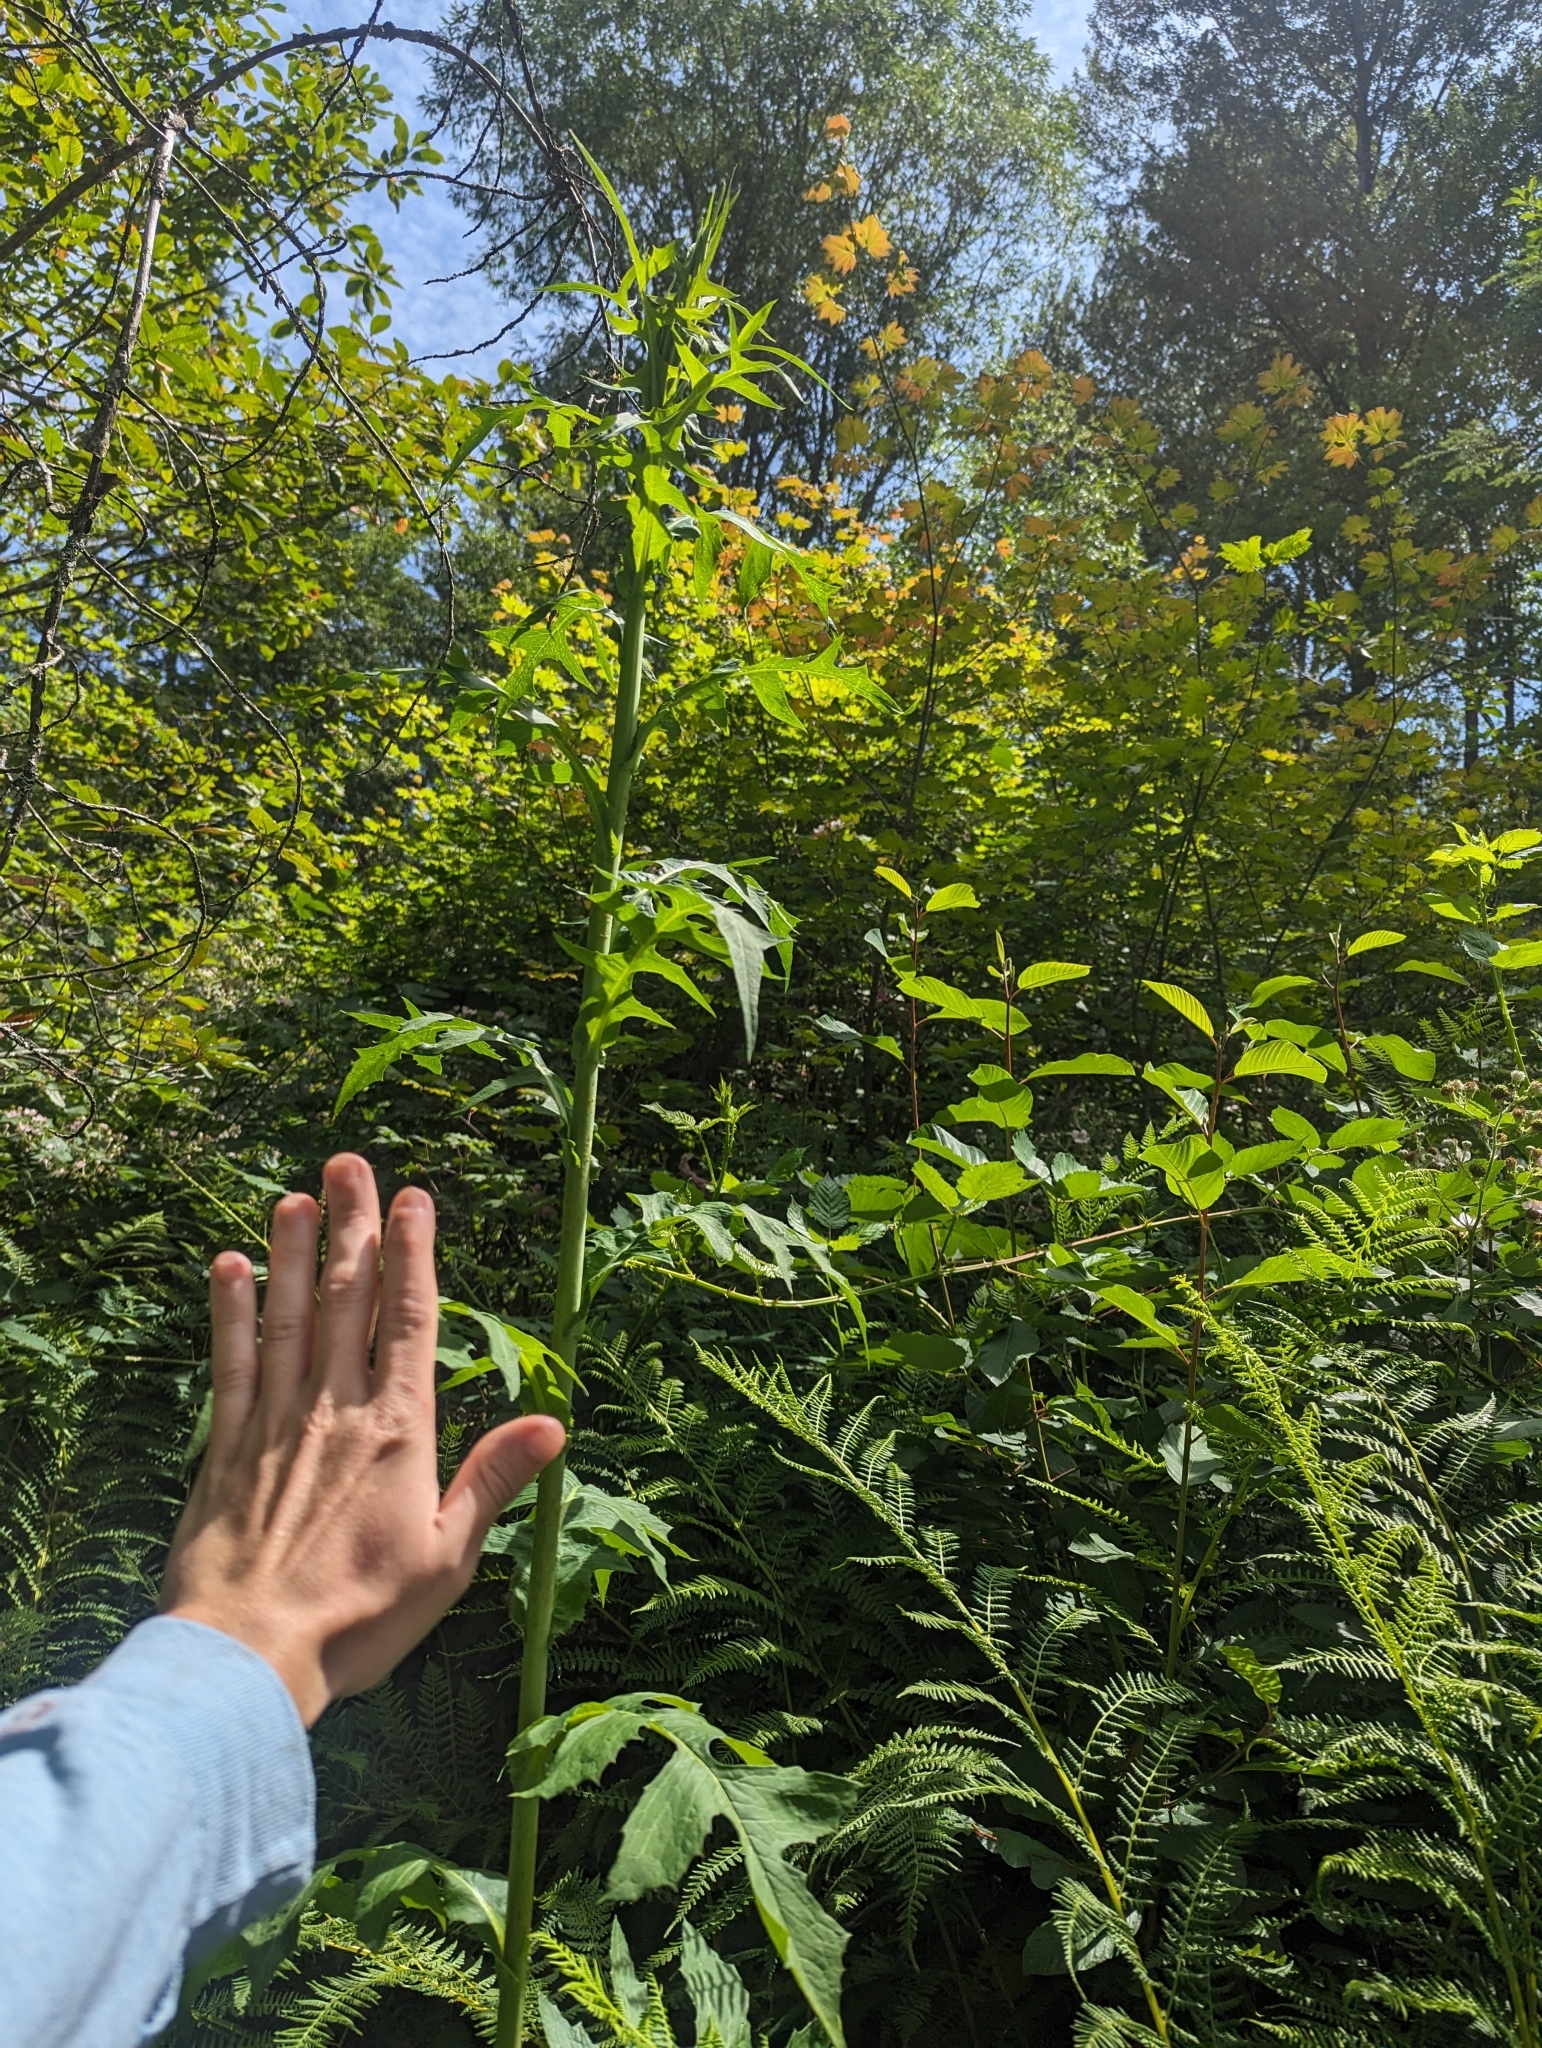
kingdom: Plantae
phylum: Tracheophyta
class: Magnoliopsida
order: Asterales
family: Asteraceae
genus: Lactuca
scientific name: Lactuca biennis
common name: Blue wood lettuce
